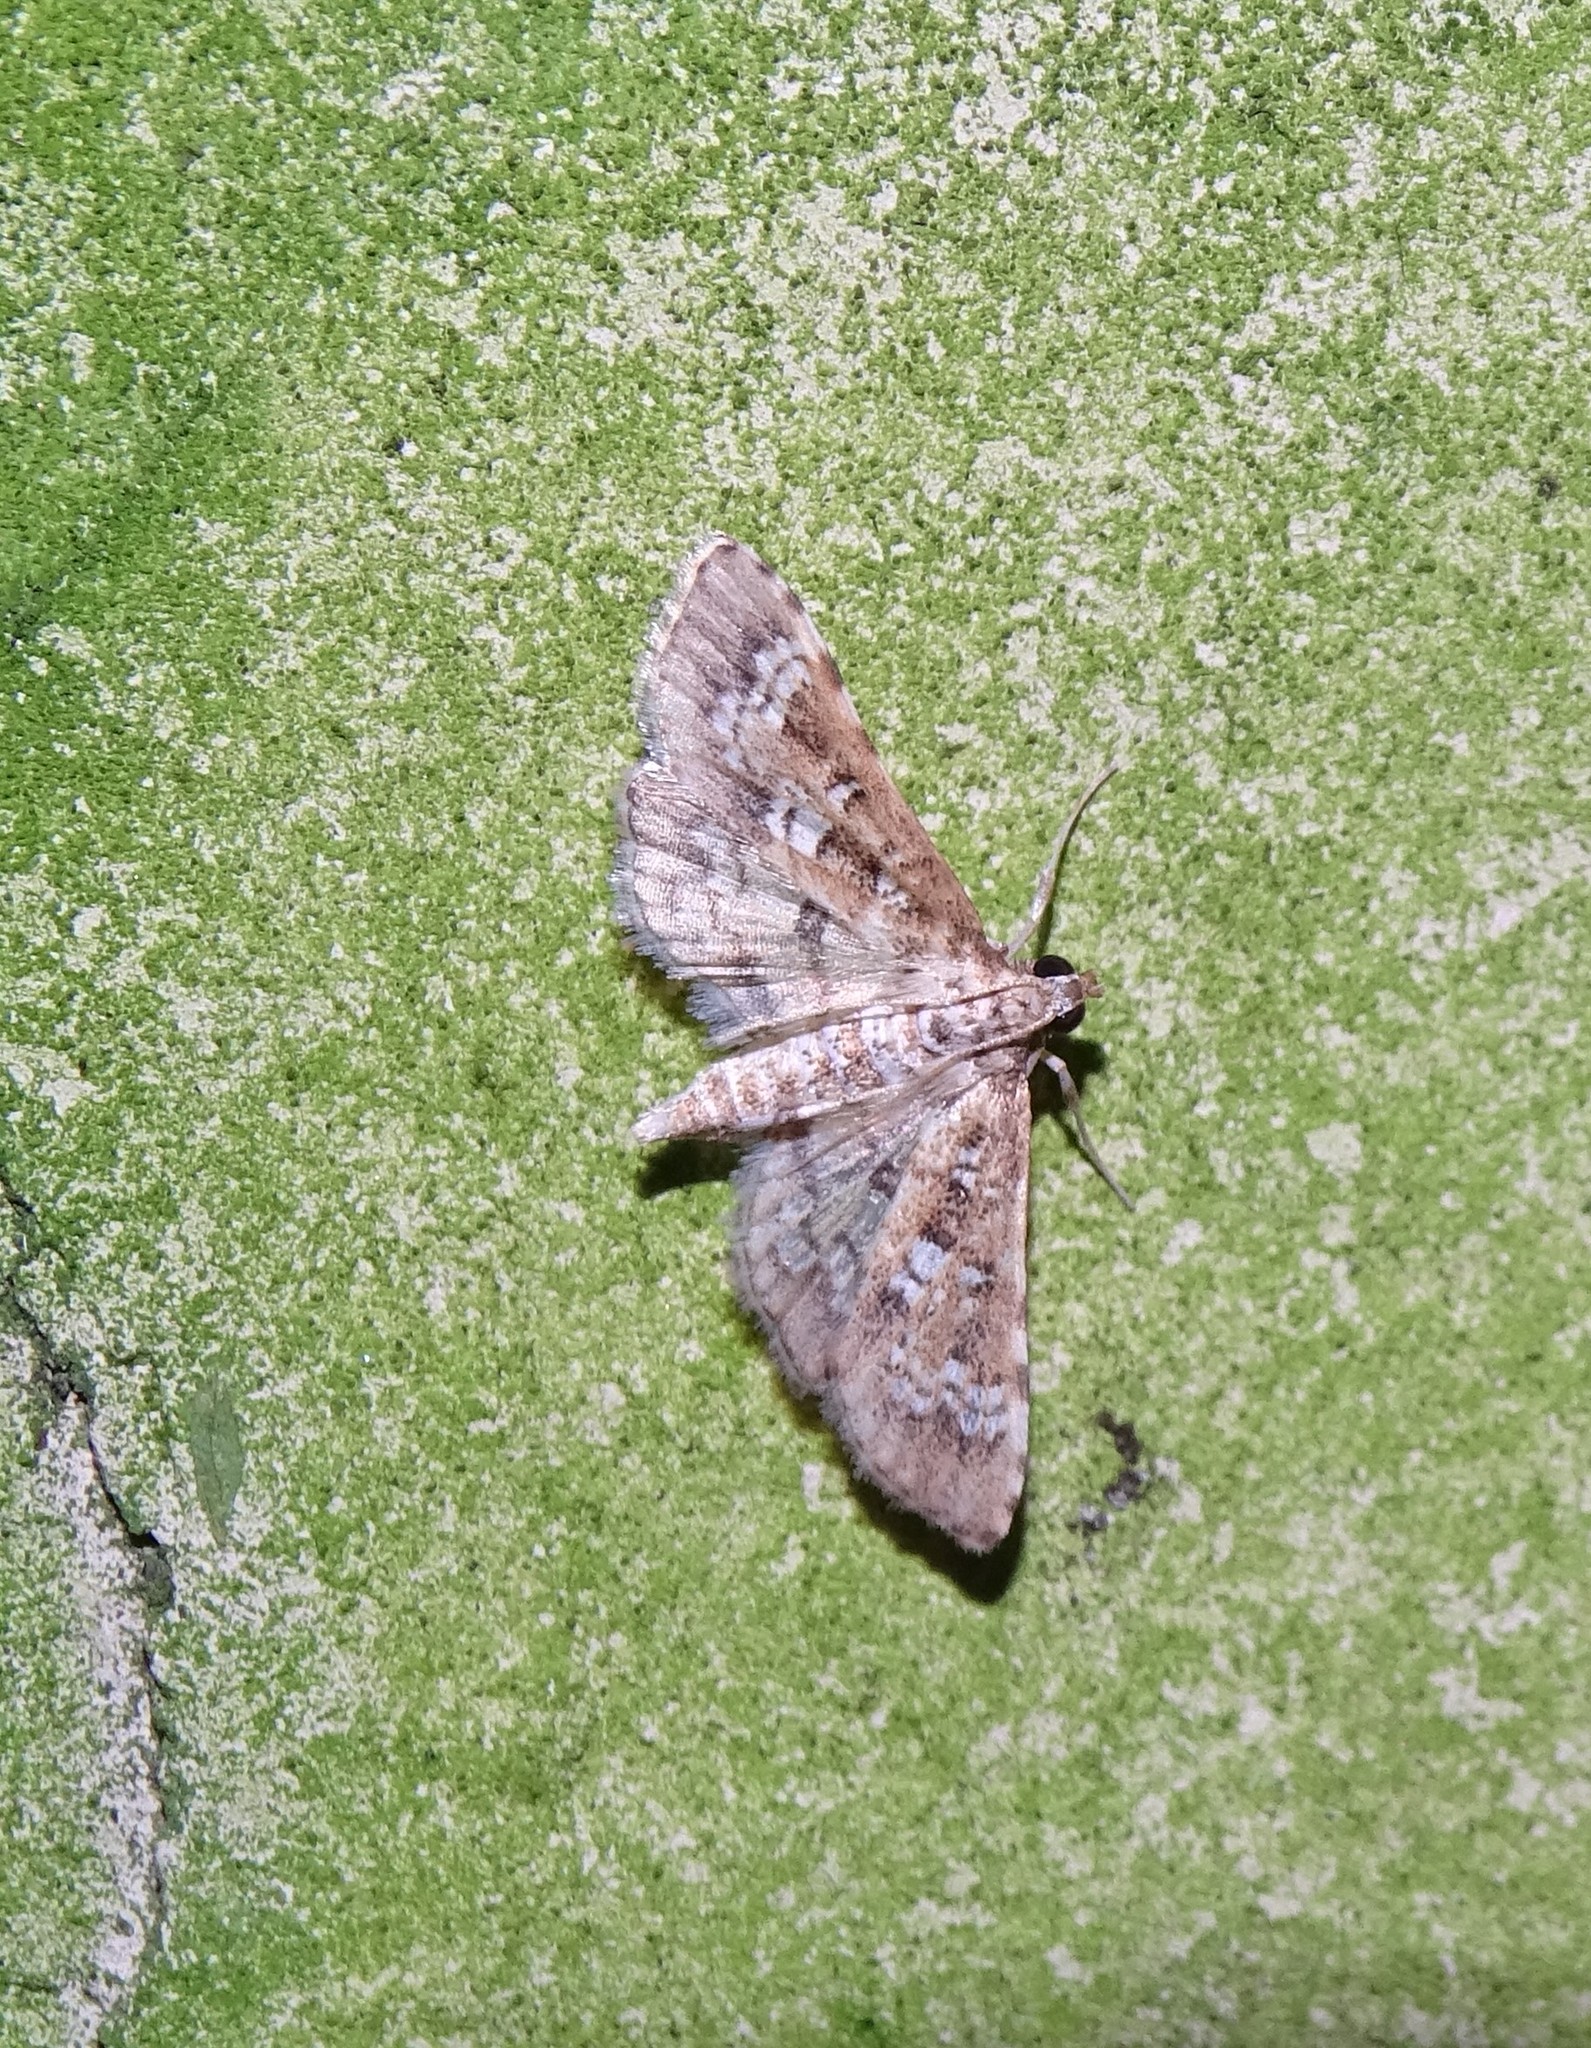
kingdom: Animalia
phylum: Arthropoda
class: Insecta
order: Lepidoptera
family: Crambidae
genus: Samea
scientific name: Samea multiplicalis
